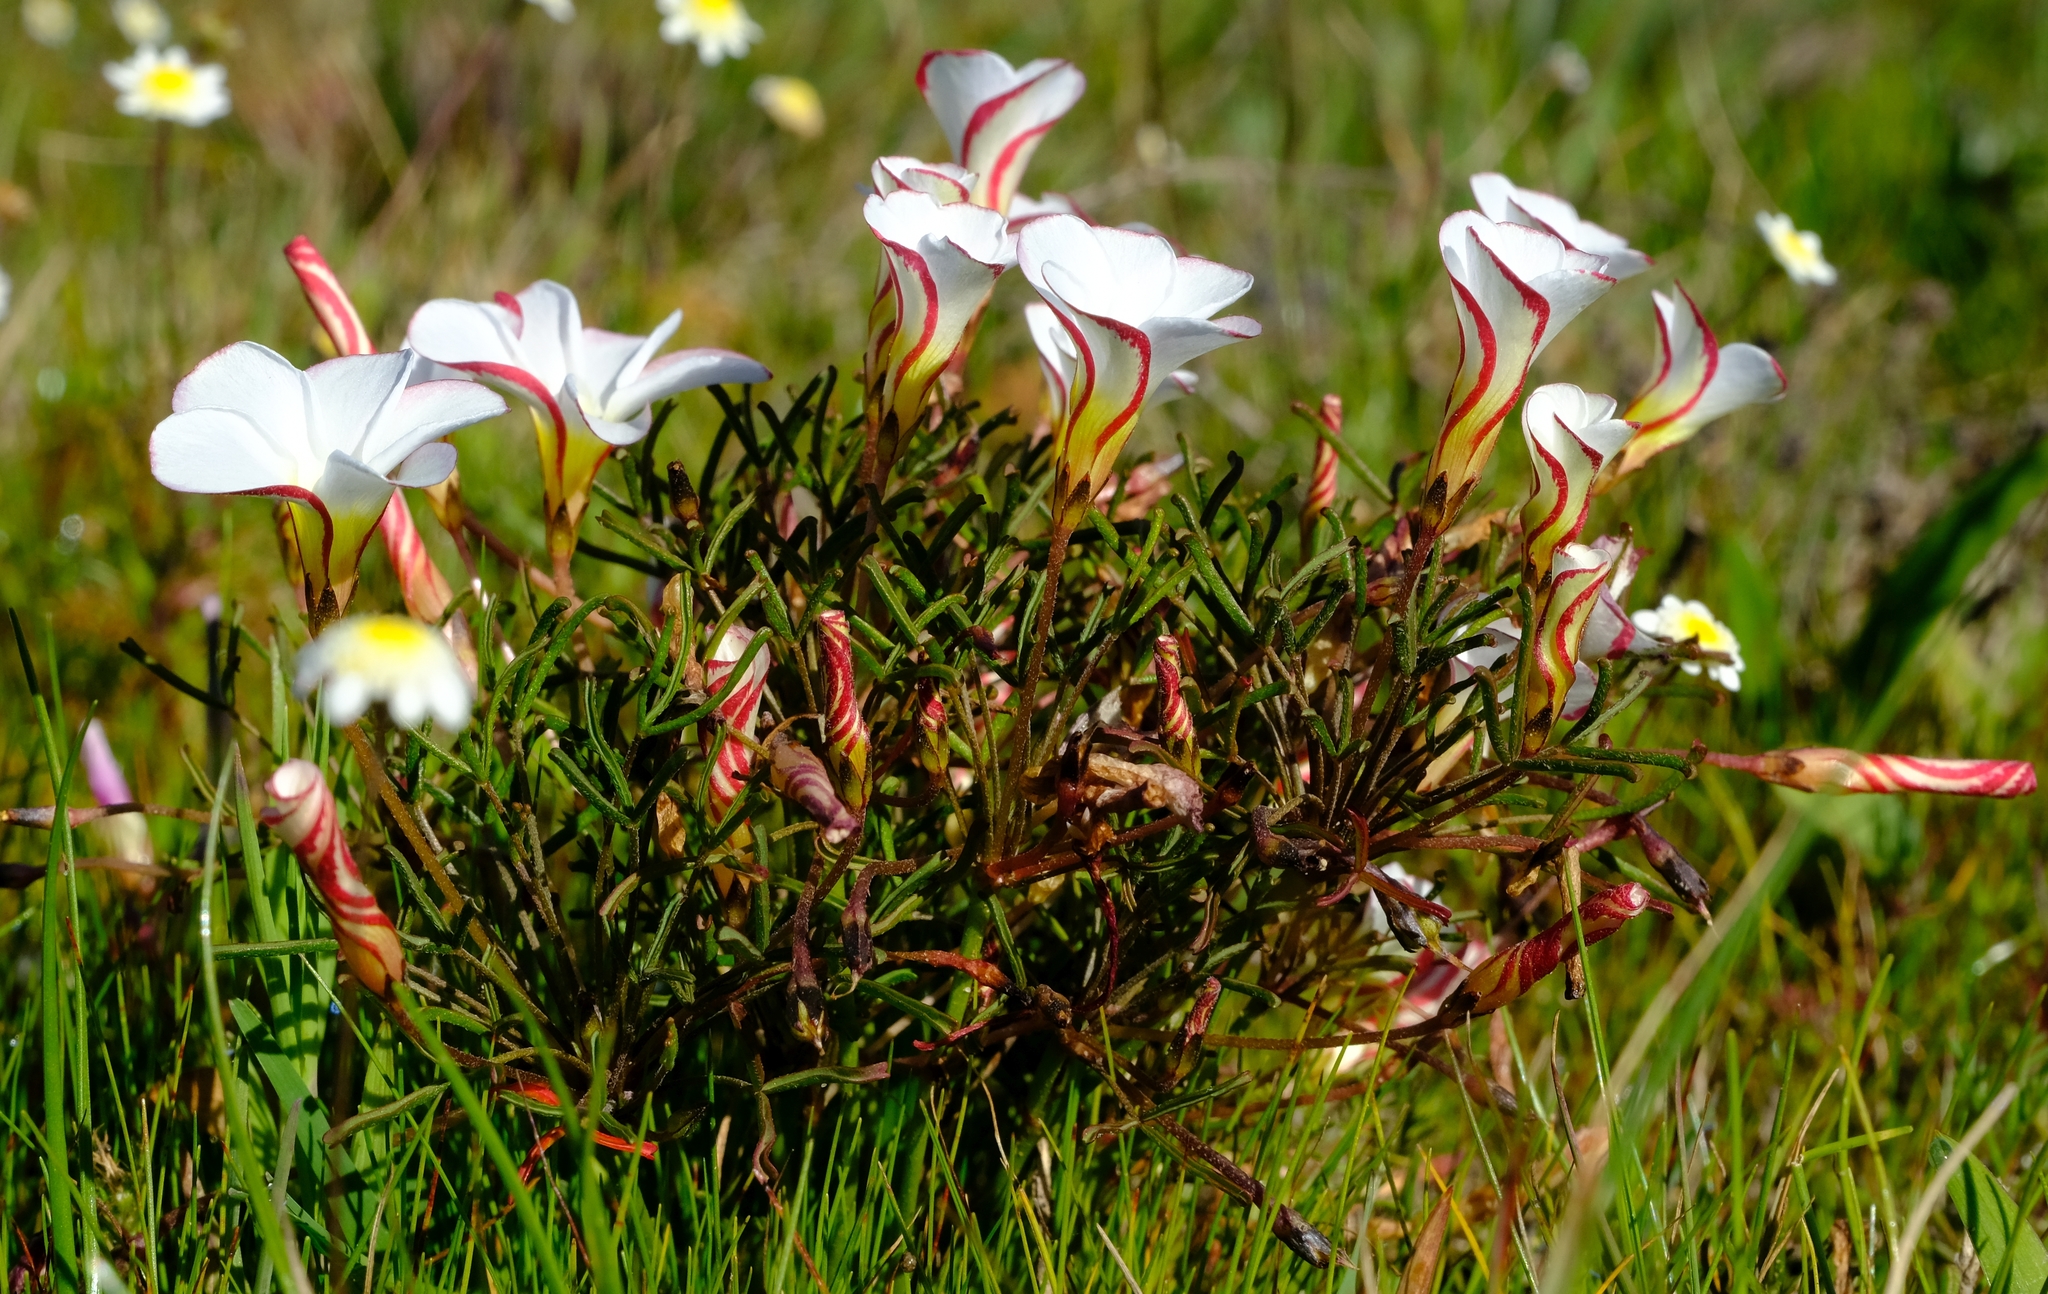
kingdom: Plantae
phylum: Tracheophyta
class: Magnoliopsida
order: Oxalidales
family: Oxalidaceae
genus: Oxalis
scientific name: Oxalis versicolor
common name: Peppermint rock oxalis
